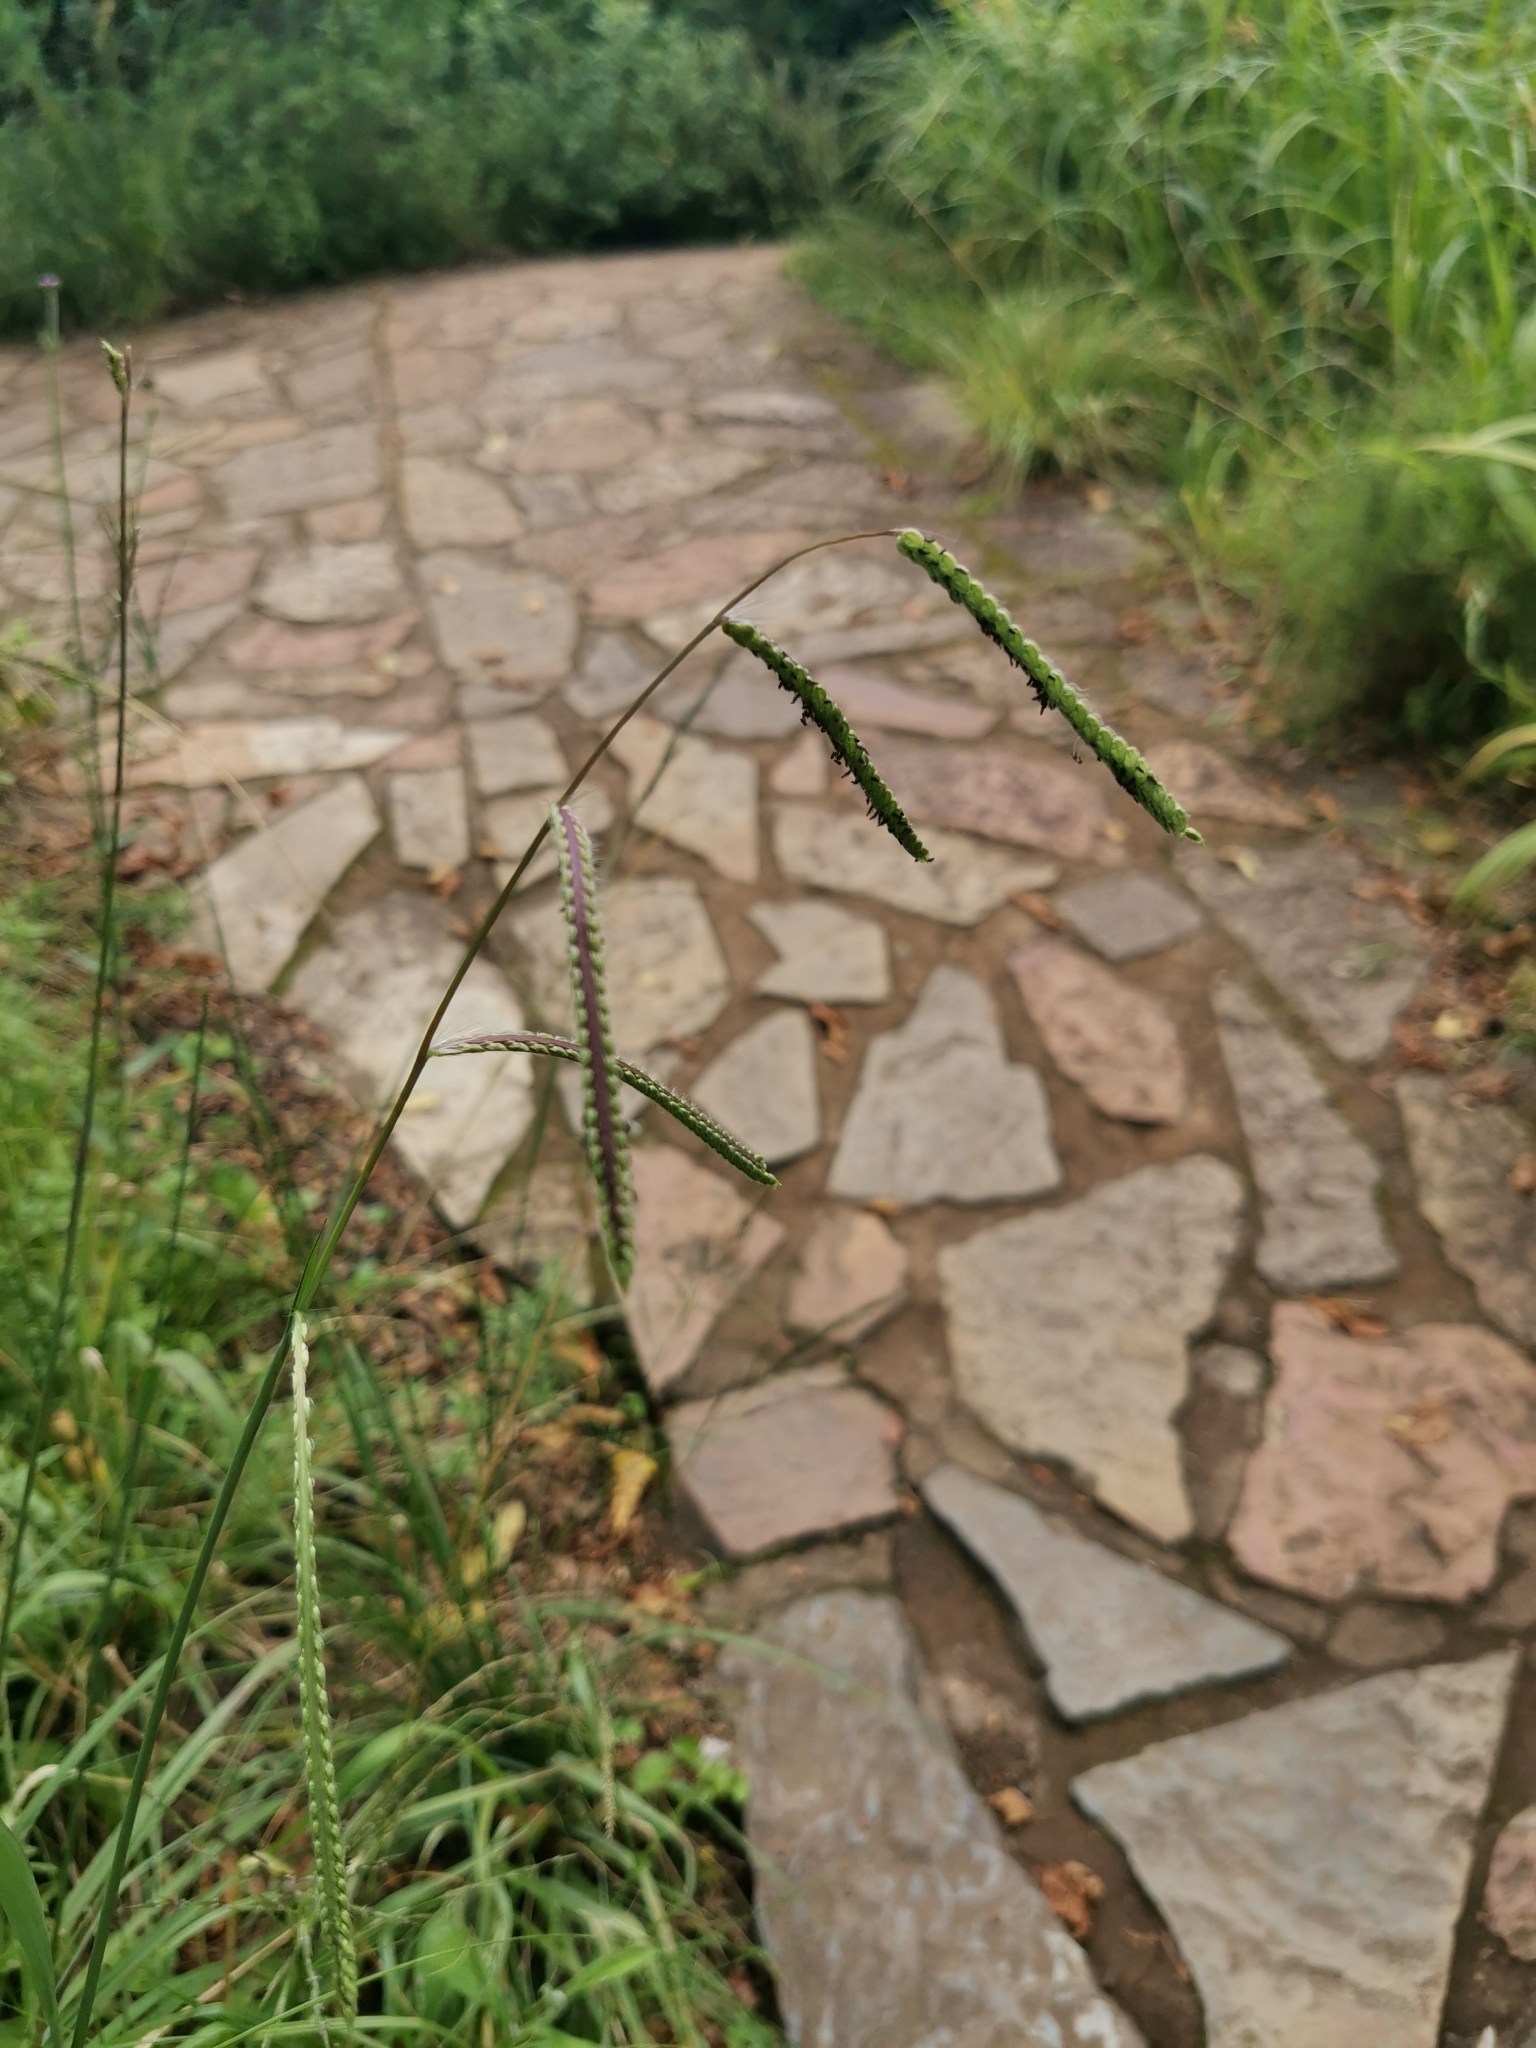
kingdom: Plantae
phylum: Tracheophyta
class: Liliopsida
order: Poales
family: Poaceae
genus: Paspalum
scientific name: Paspalum dilatatum
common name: Dallisgrass
